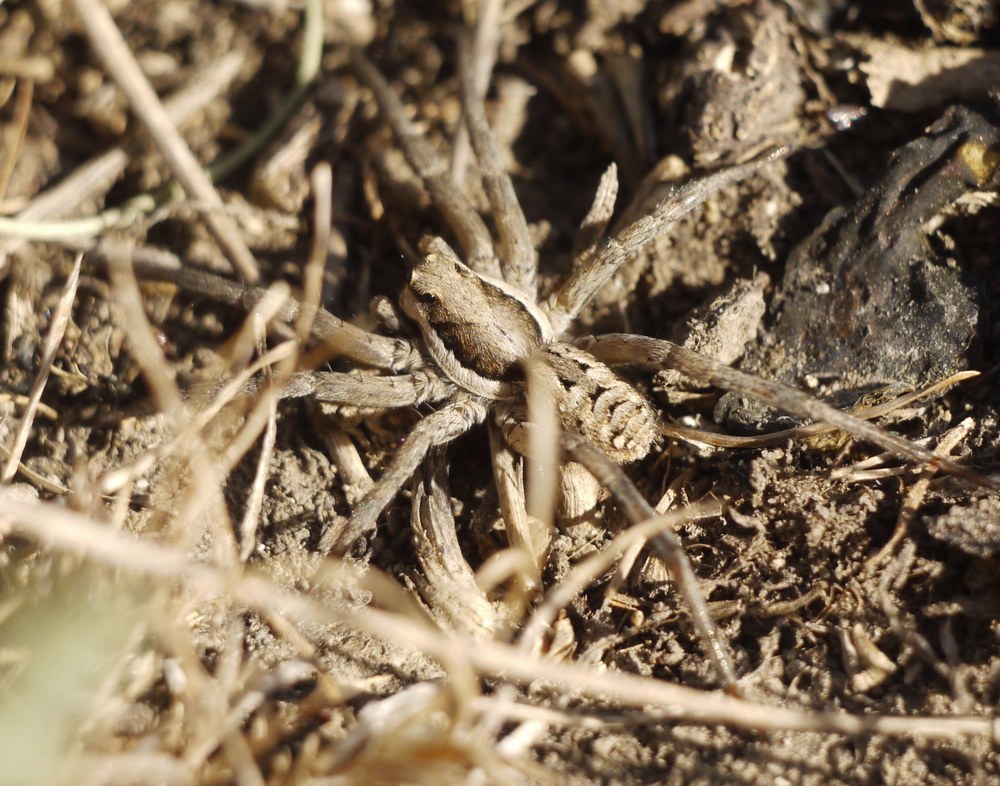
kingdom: Animalia
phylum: Arthropoda
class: Arachnida
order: Araneae
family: Lycosidae
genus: Lycosa
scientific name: Lycosa praegrandis
